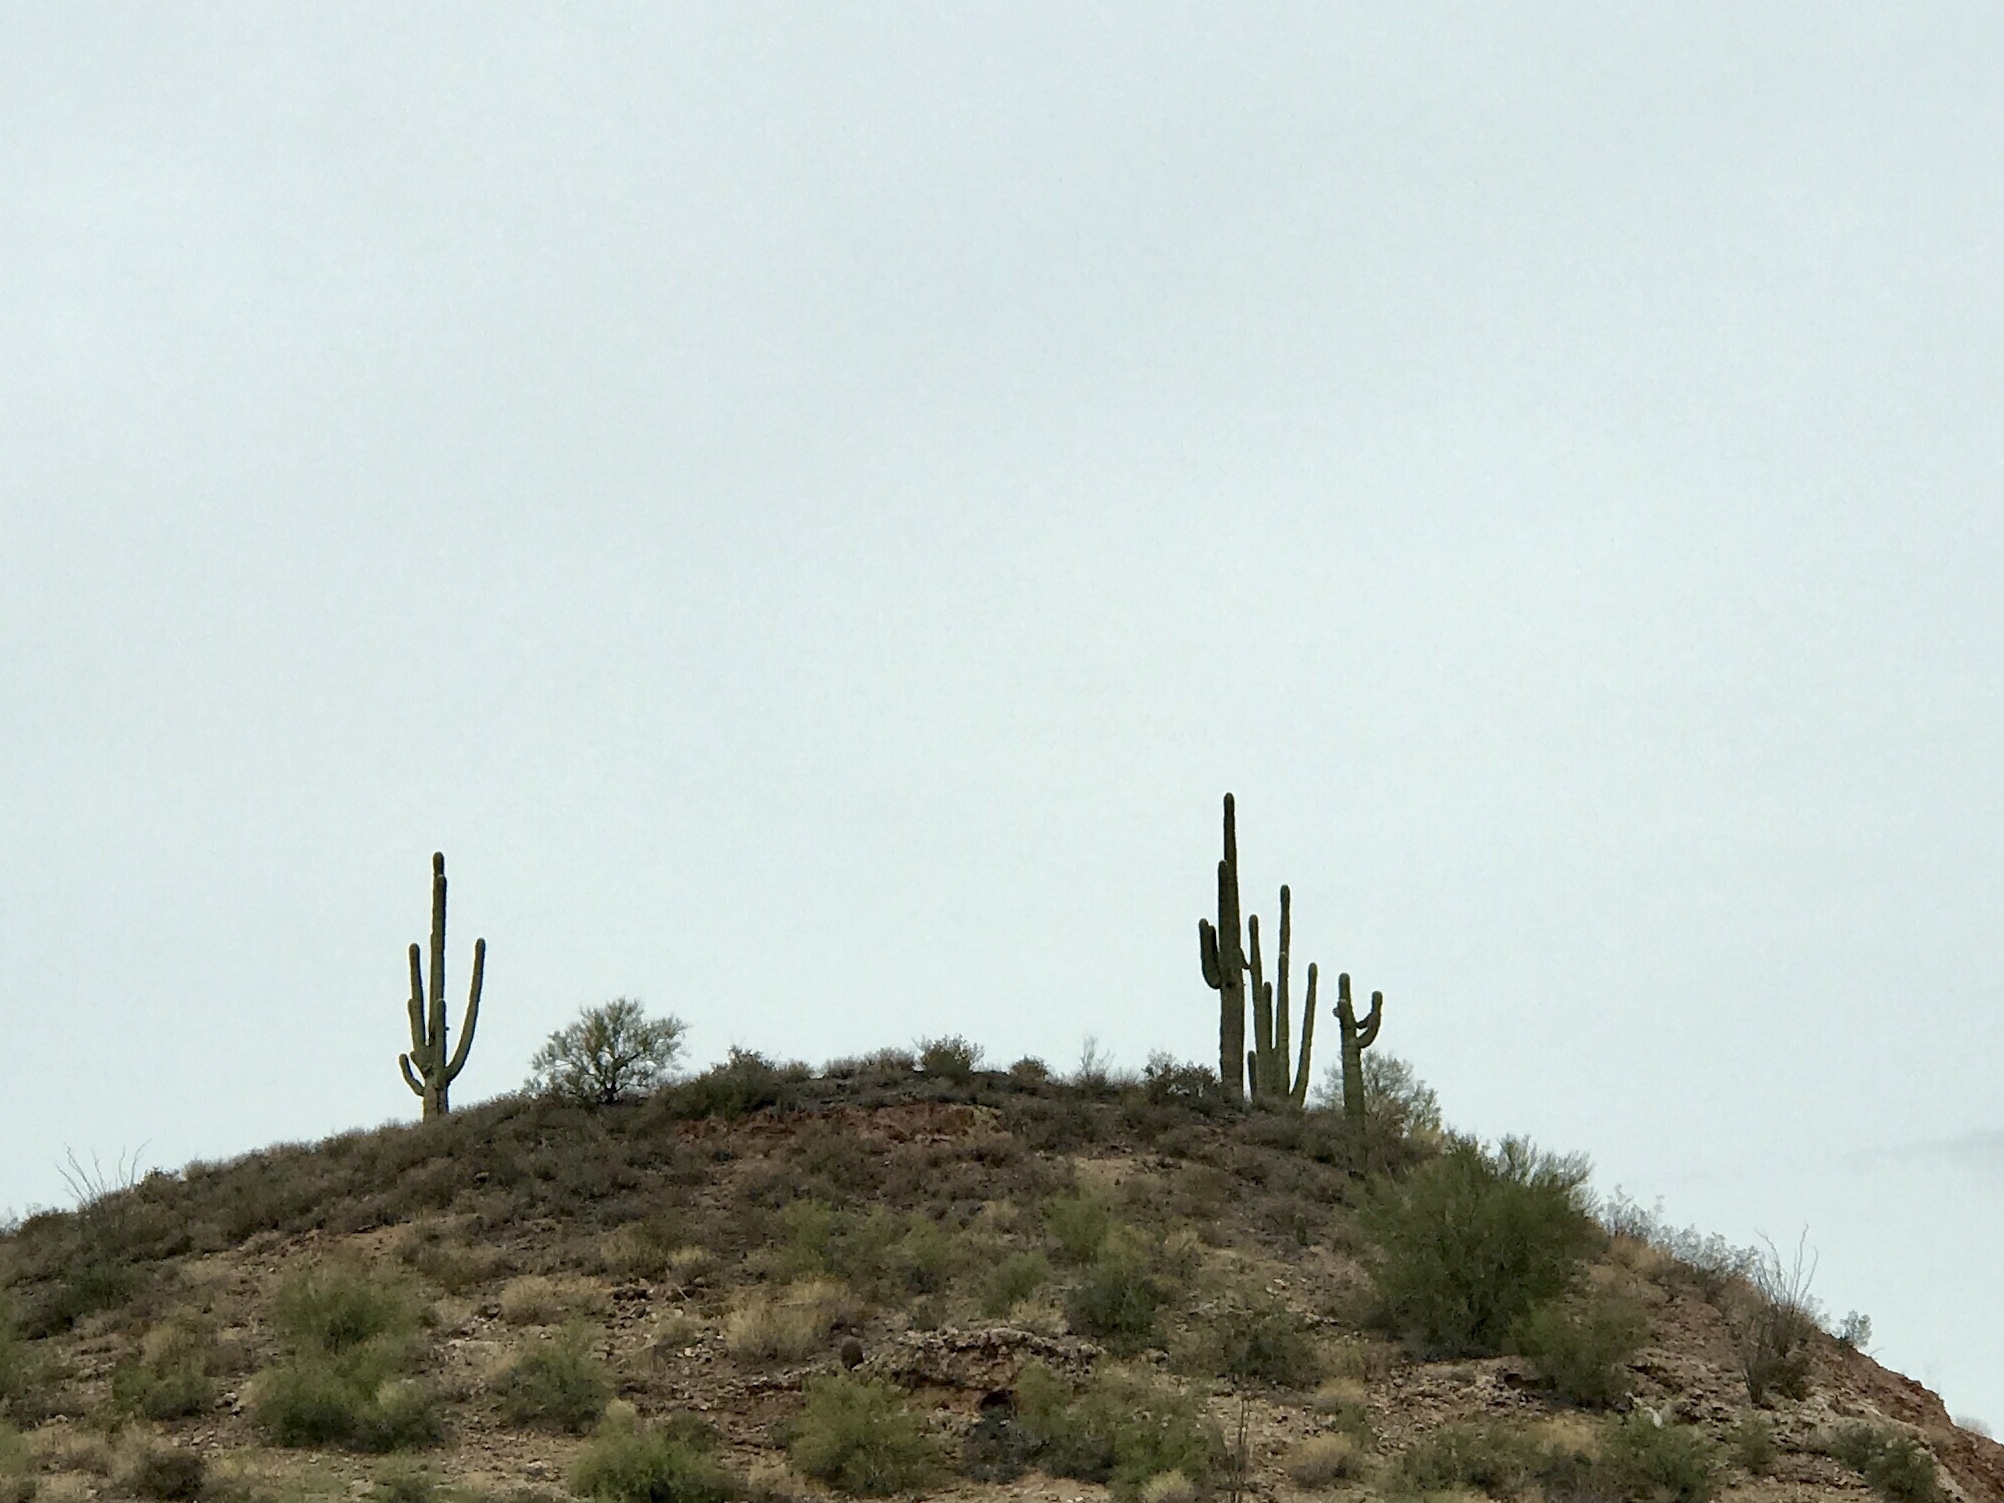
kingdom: Plantae
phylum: Tracheophyta
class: Magnoliopsida
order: Caryophyllales
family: Cactaceae
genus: Carnegiea
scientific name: Carnegiea gigantea
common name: Saguaro
